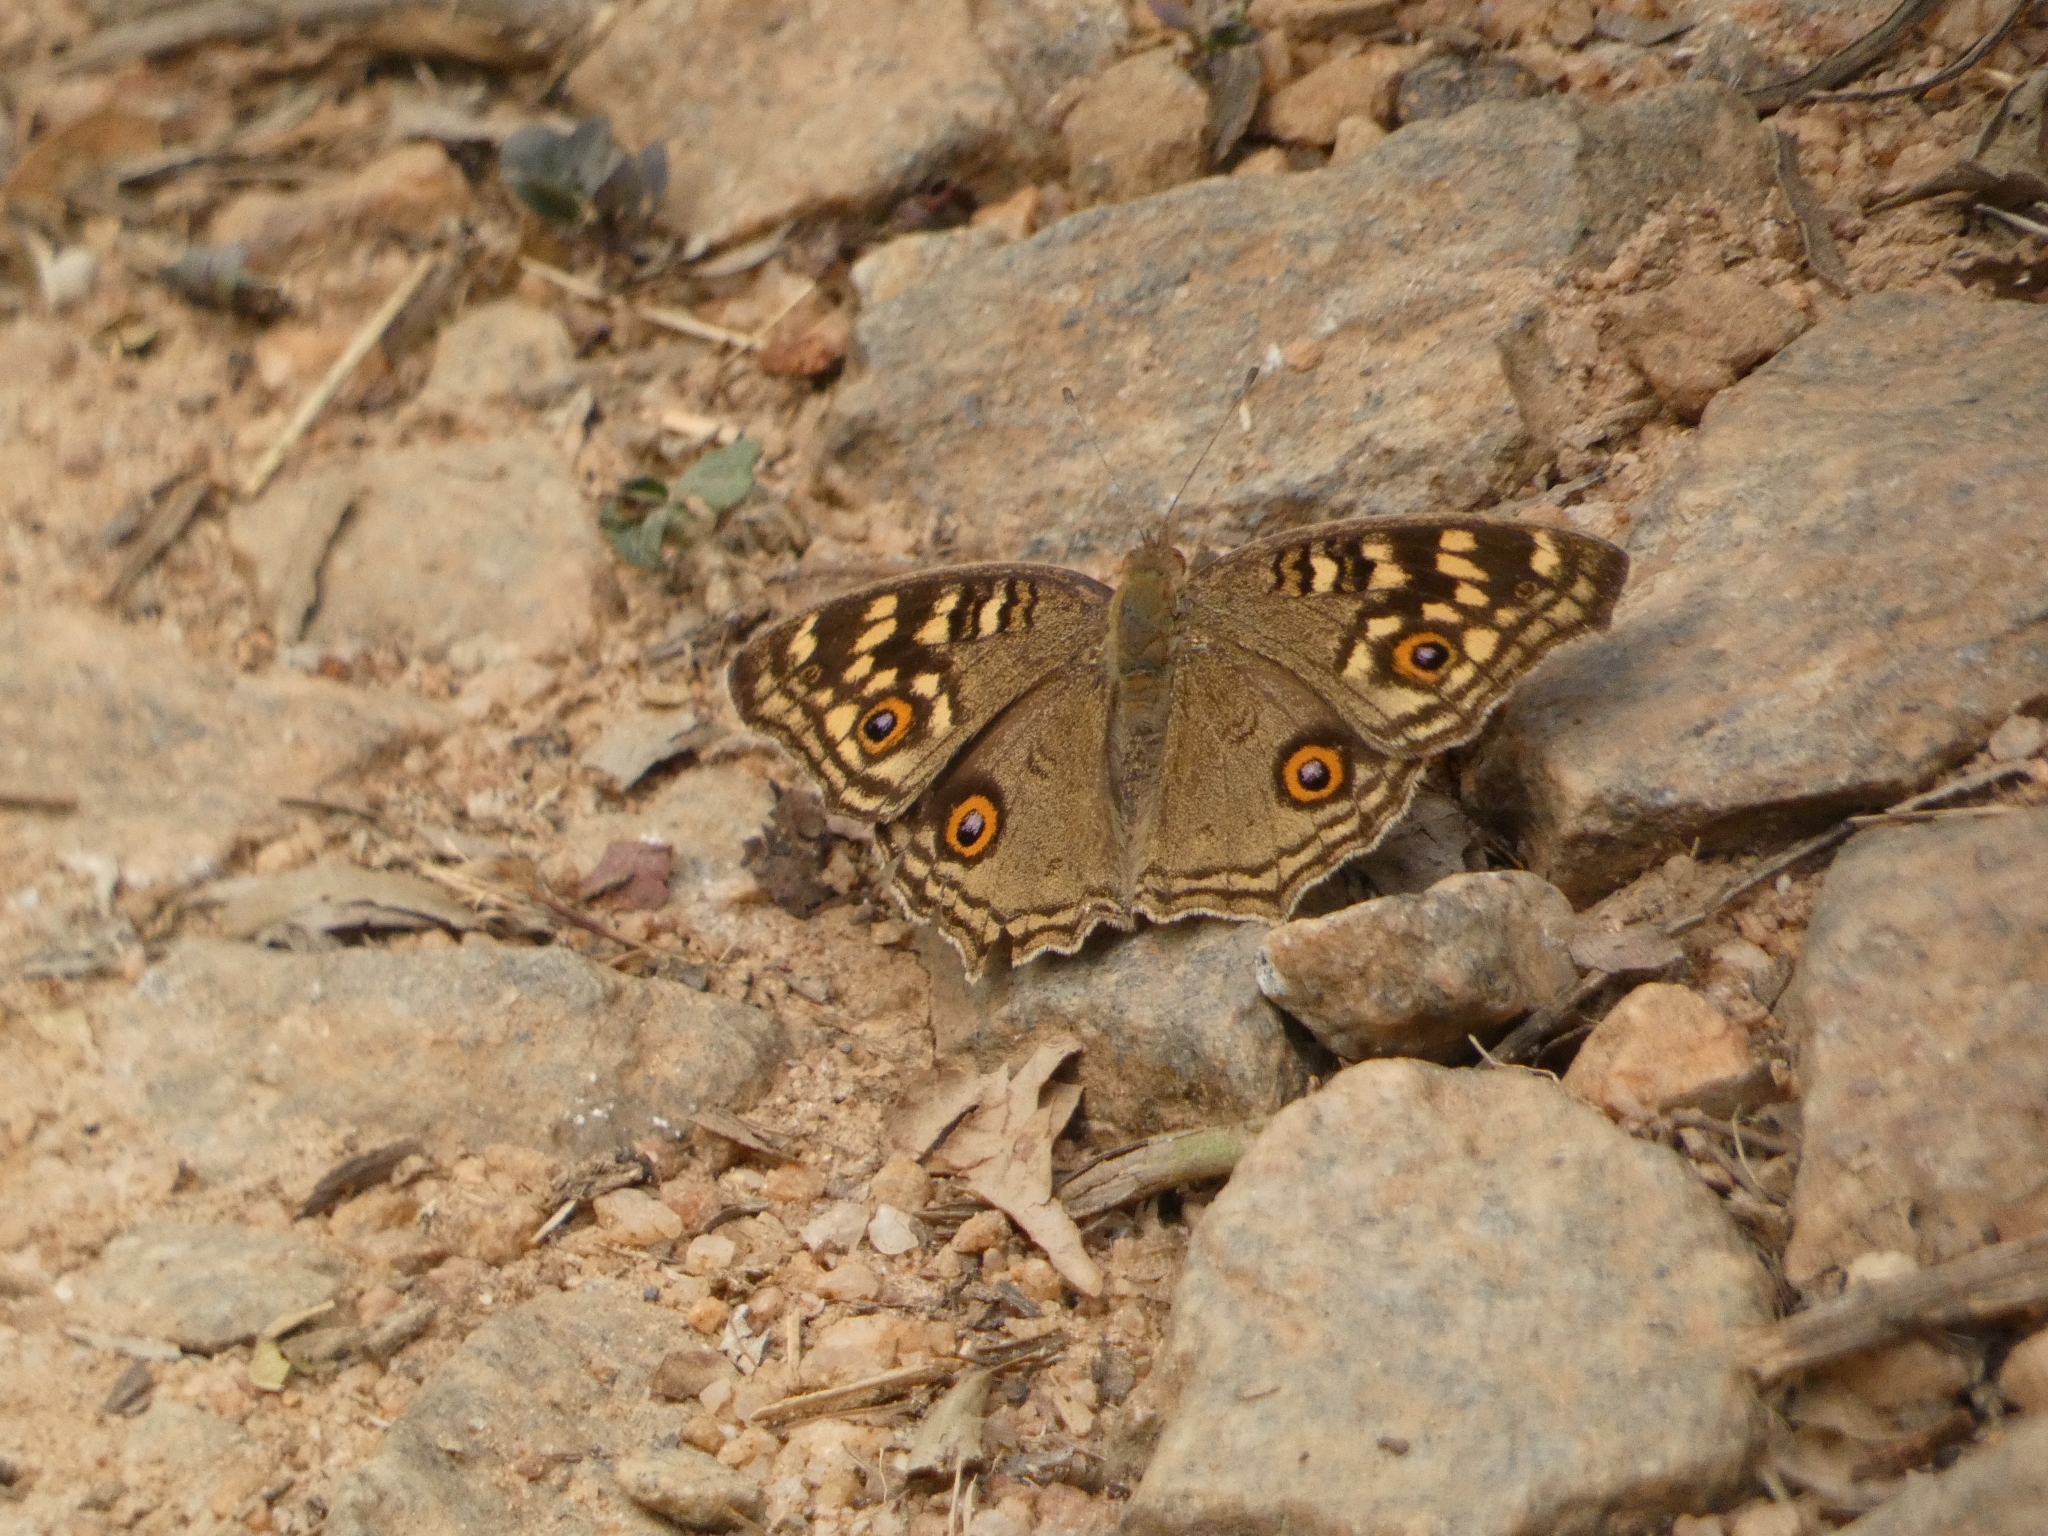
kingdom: Animalia
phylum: Arthropoda
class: Insecta
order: Lepidoptera
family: Nymphalidae
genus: Junonia
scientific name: Junonia lemonias
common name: Lemon pansy
